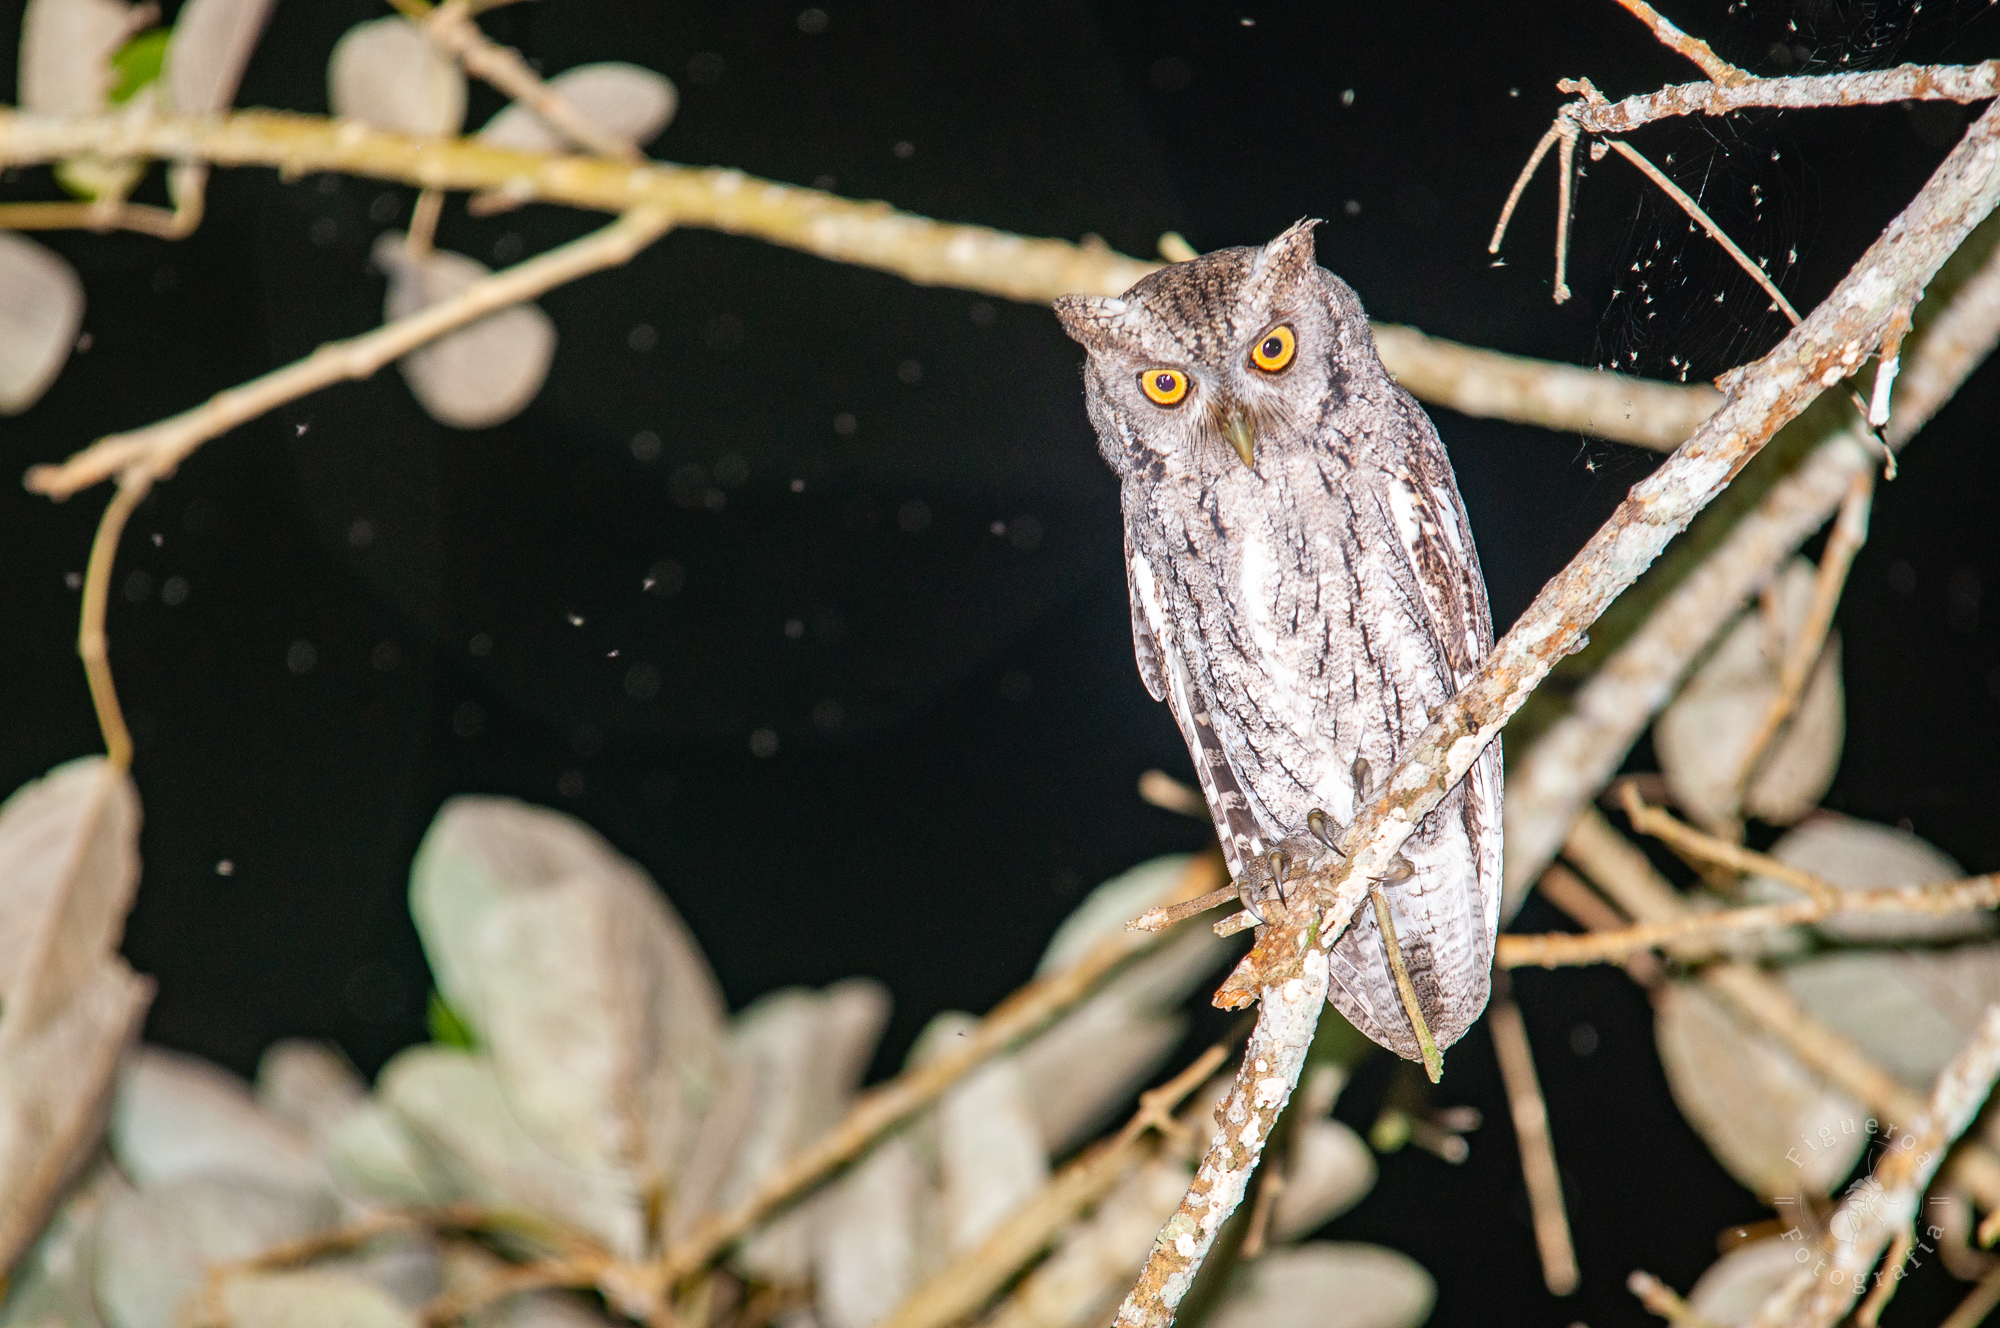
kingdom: Animalia
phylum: Chordata
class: Aves
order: Strigiformes
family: Strigidae
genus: Megascops
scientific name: Megascops cooperi
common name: Pacific screech-owl
